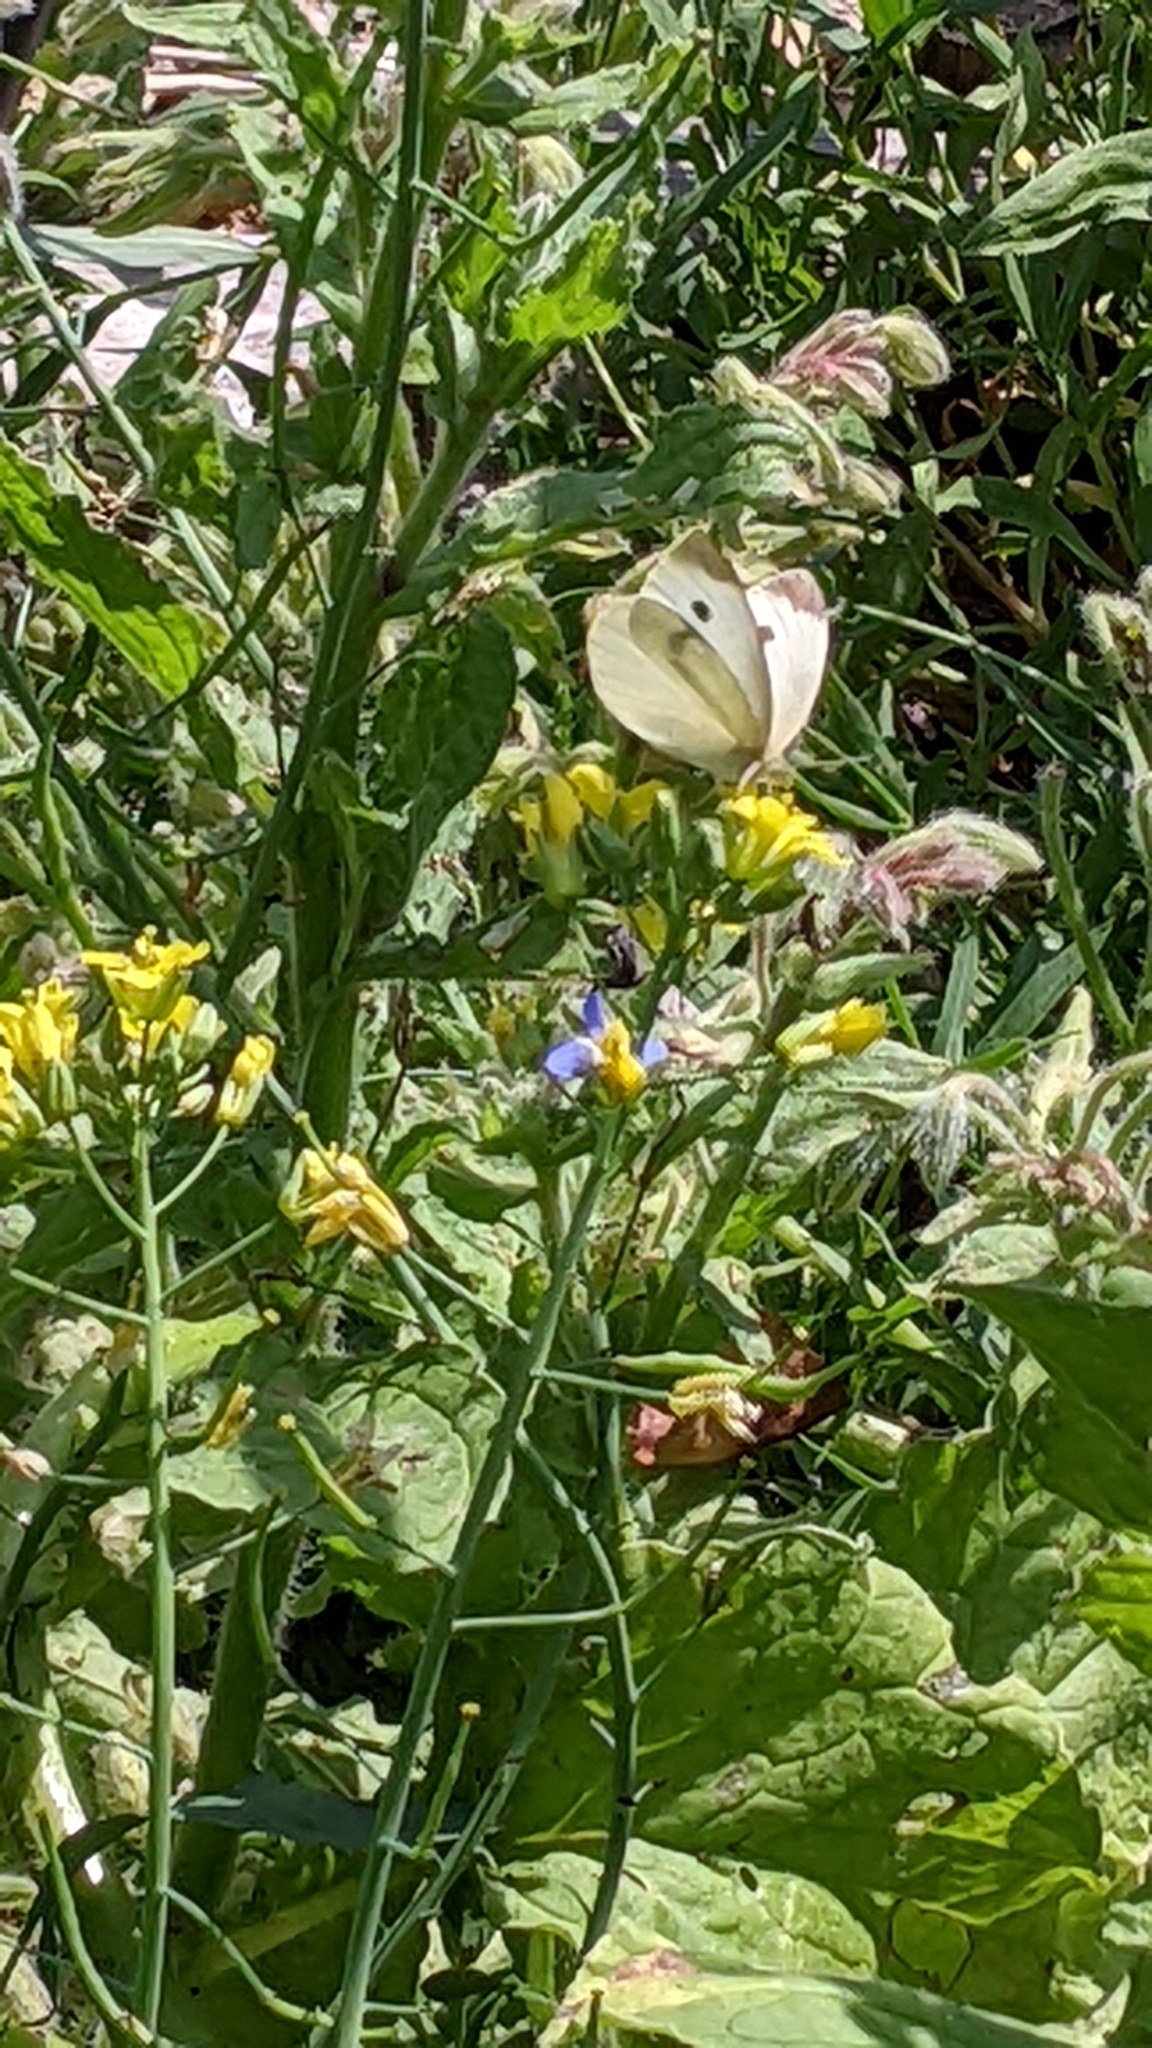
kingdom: Animalia
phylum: Arthropoda
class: Insecta
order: Lepidoptera
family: Pieridae
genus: Pieris
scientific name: Pieris rapae
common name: Small white
